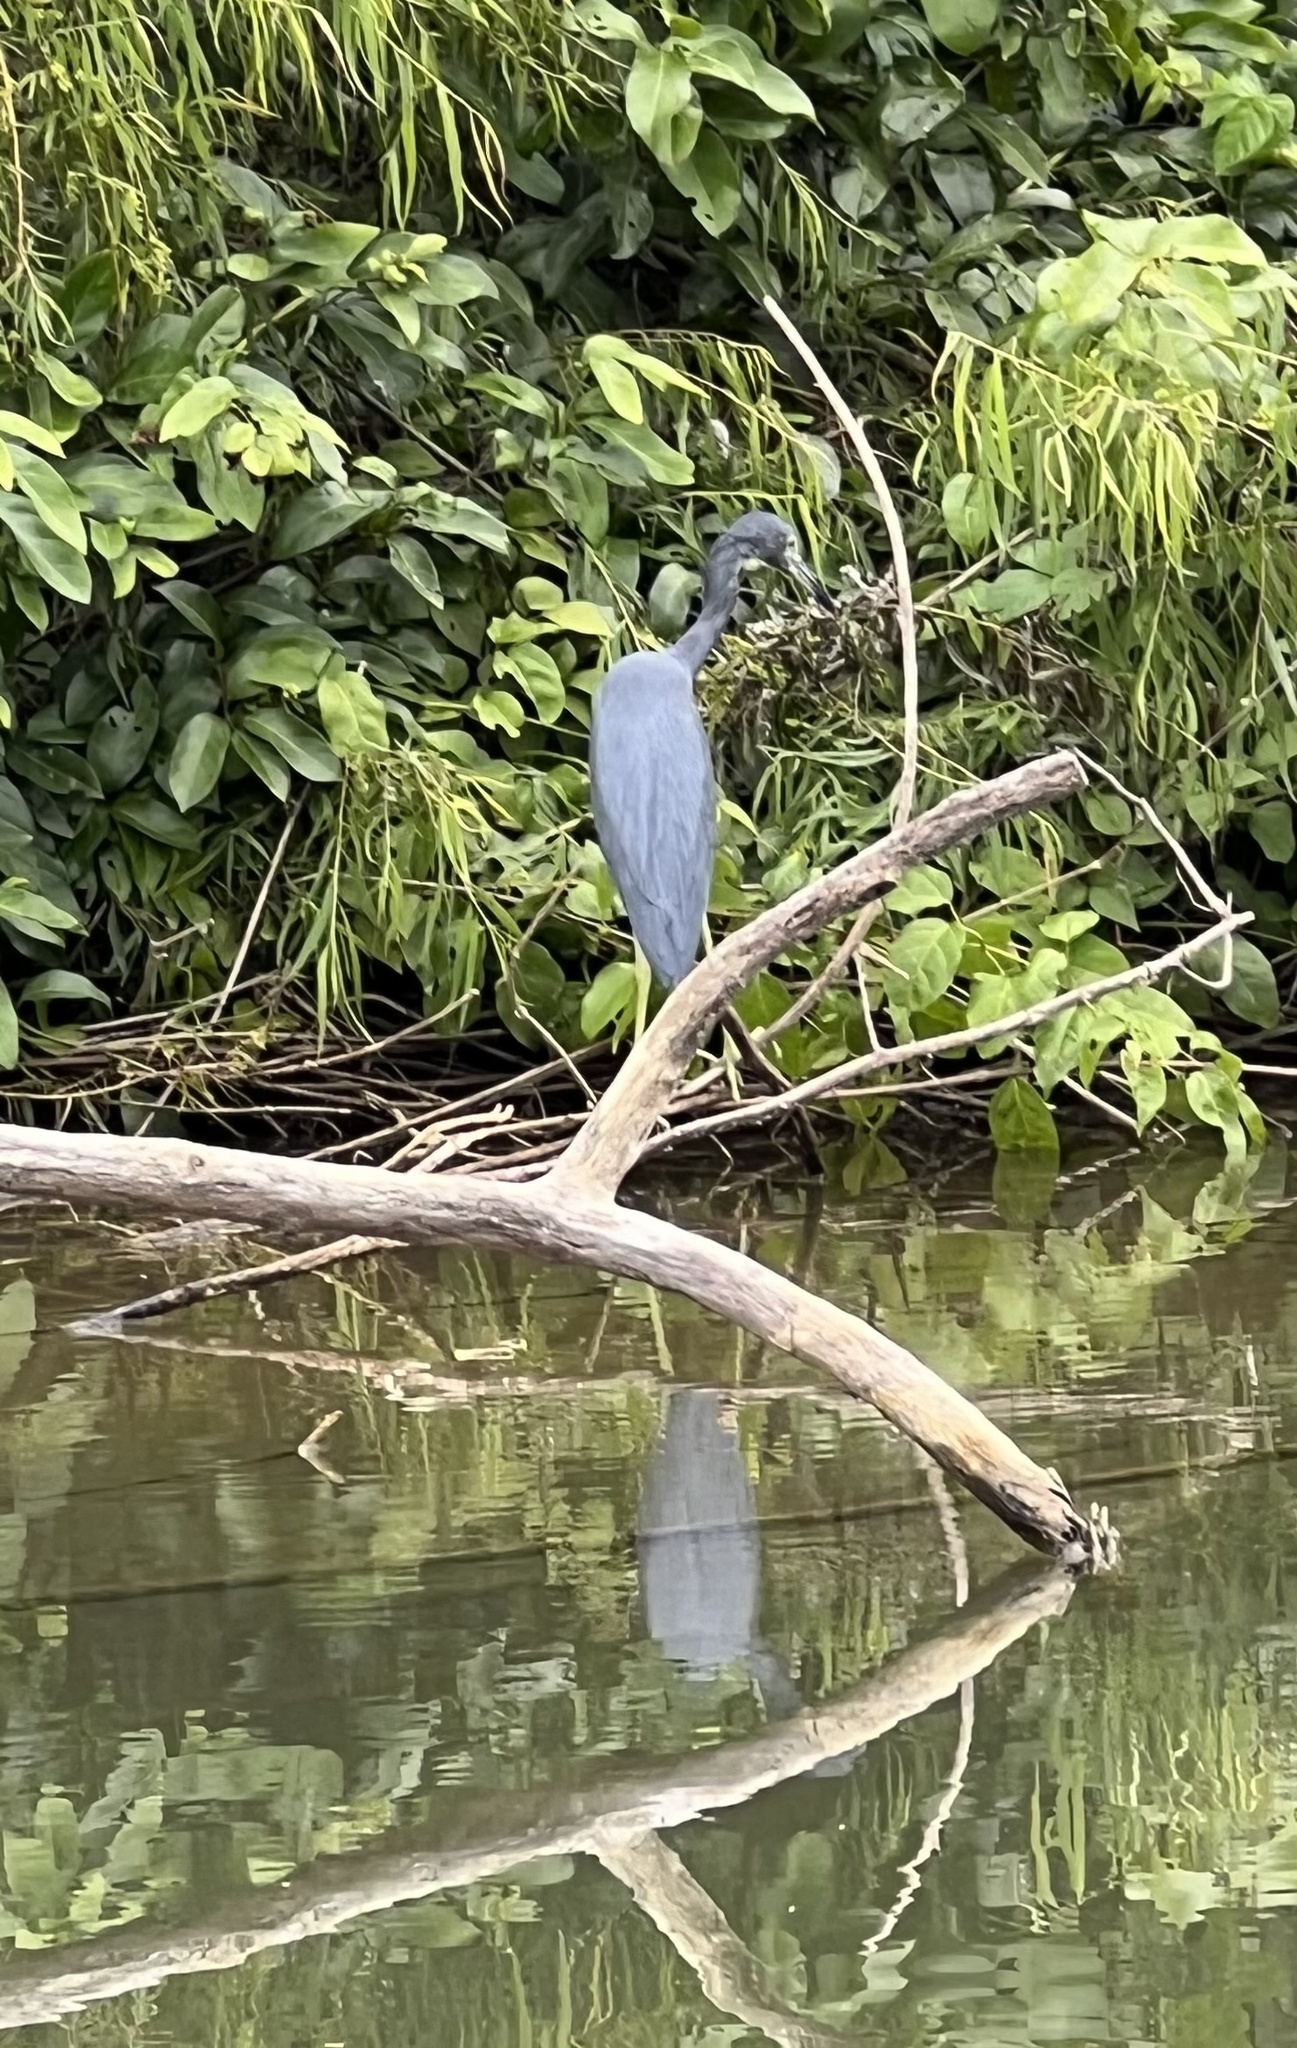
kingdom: Animalia
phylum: Chordata
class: Aves
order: Pelecaniformes
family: Ardeidae
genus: Egretta
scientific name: Egretta caerulea
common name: Little blue heron
